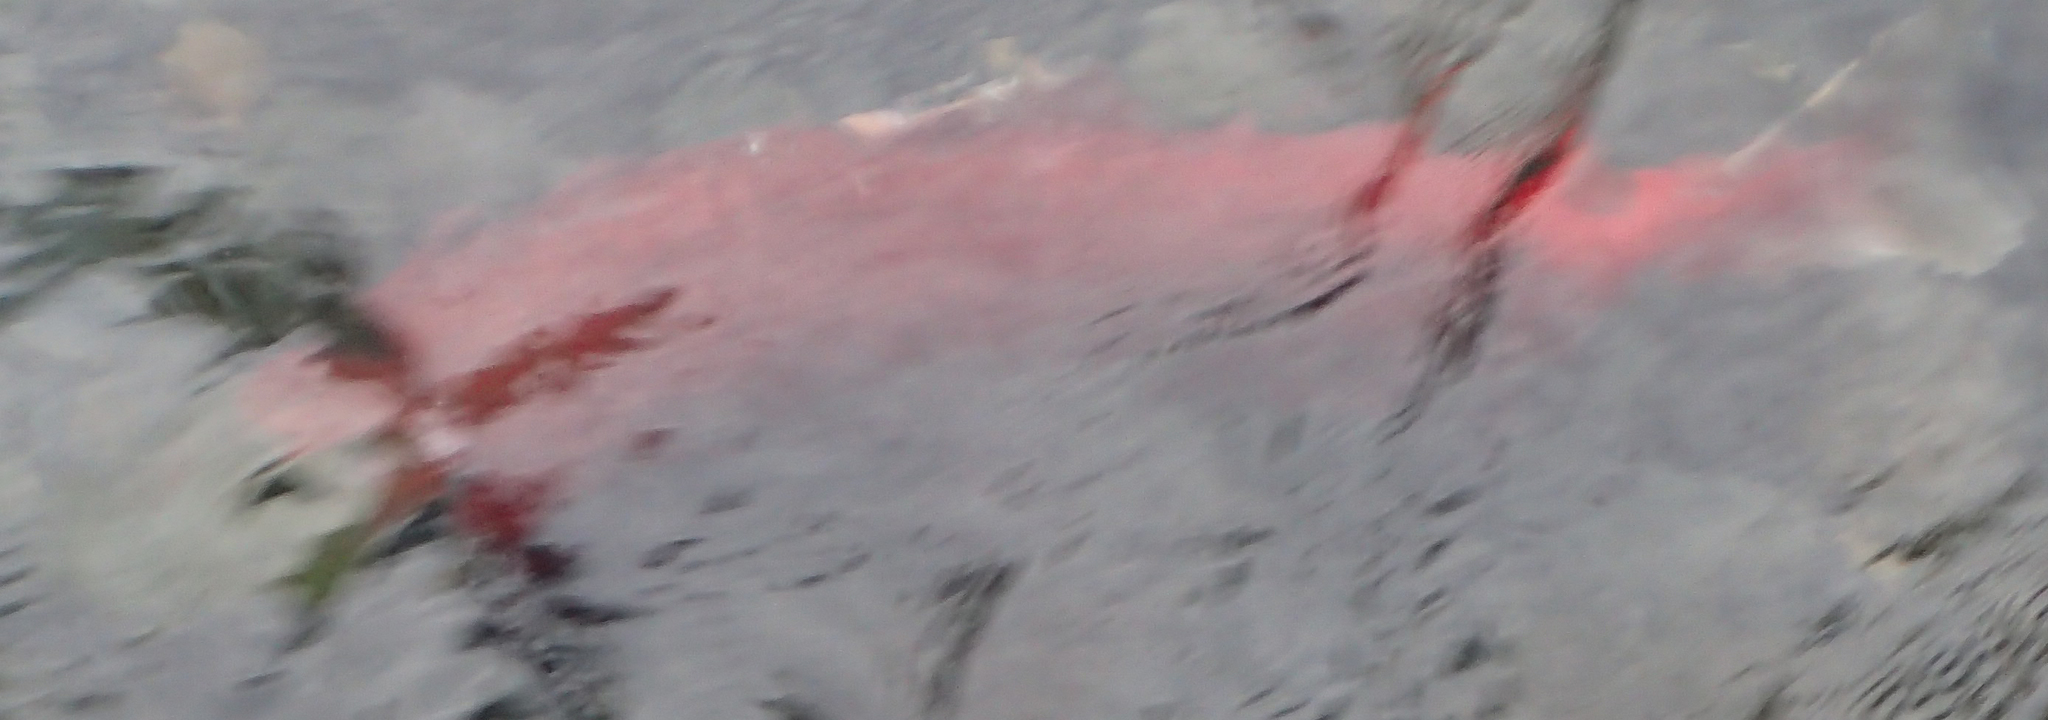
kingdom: Animalia
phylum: Chordata
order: Salmoniformes
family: Salmonidae
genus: Oncorhynchus
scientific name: Oncorhynchus nerka
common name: Sockeye salmon
